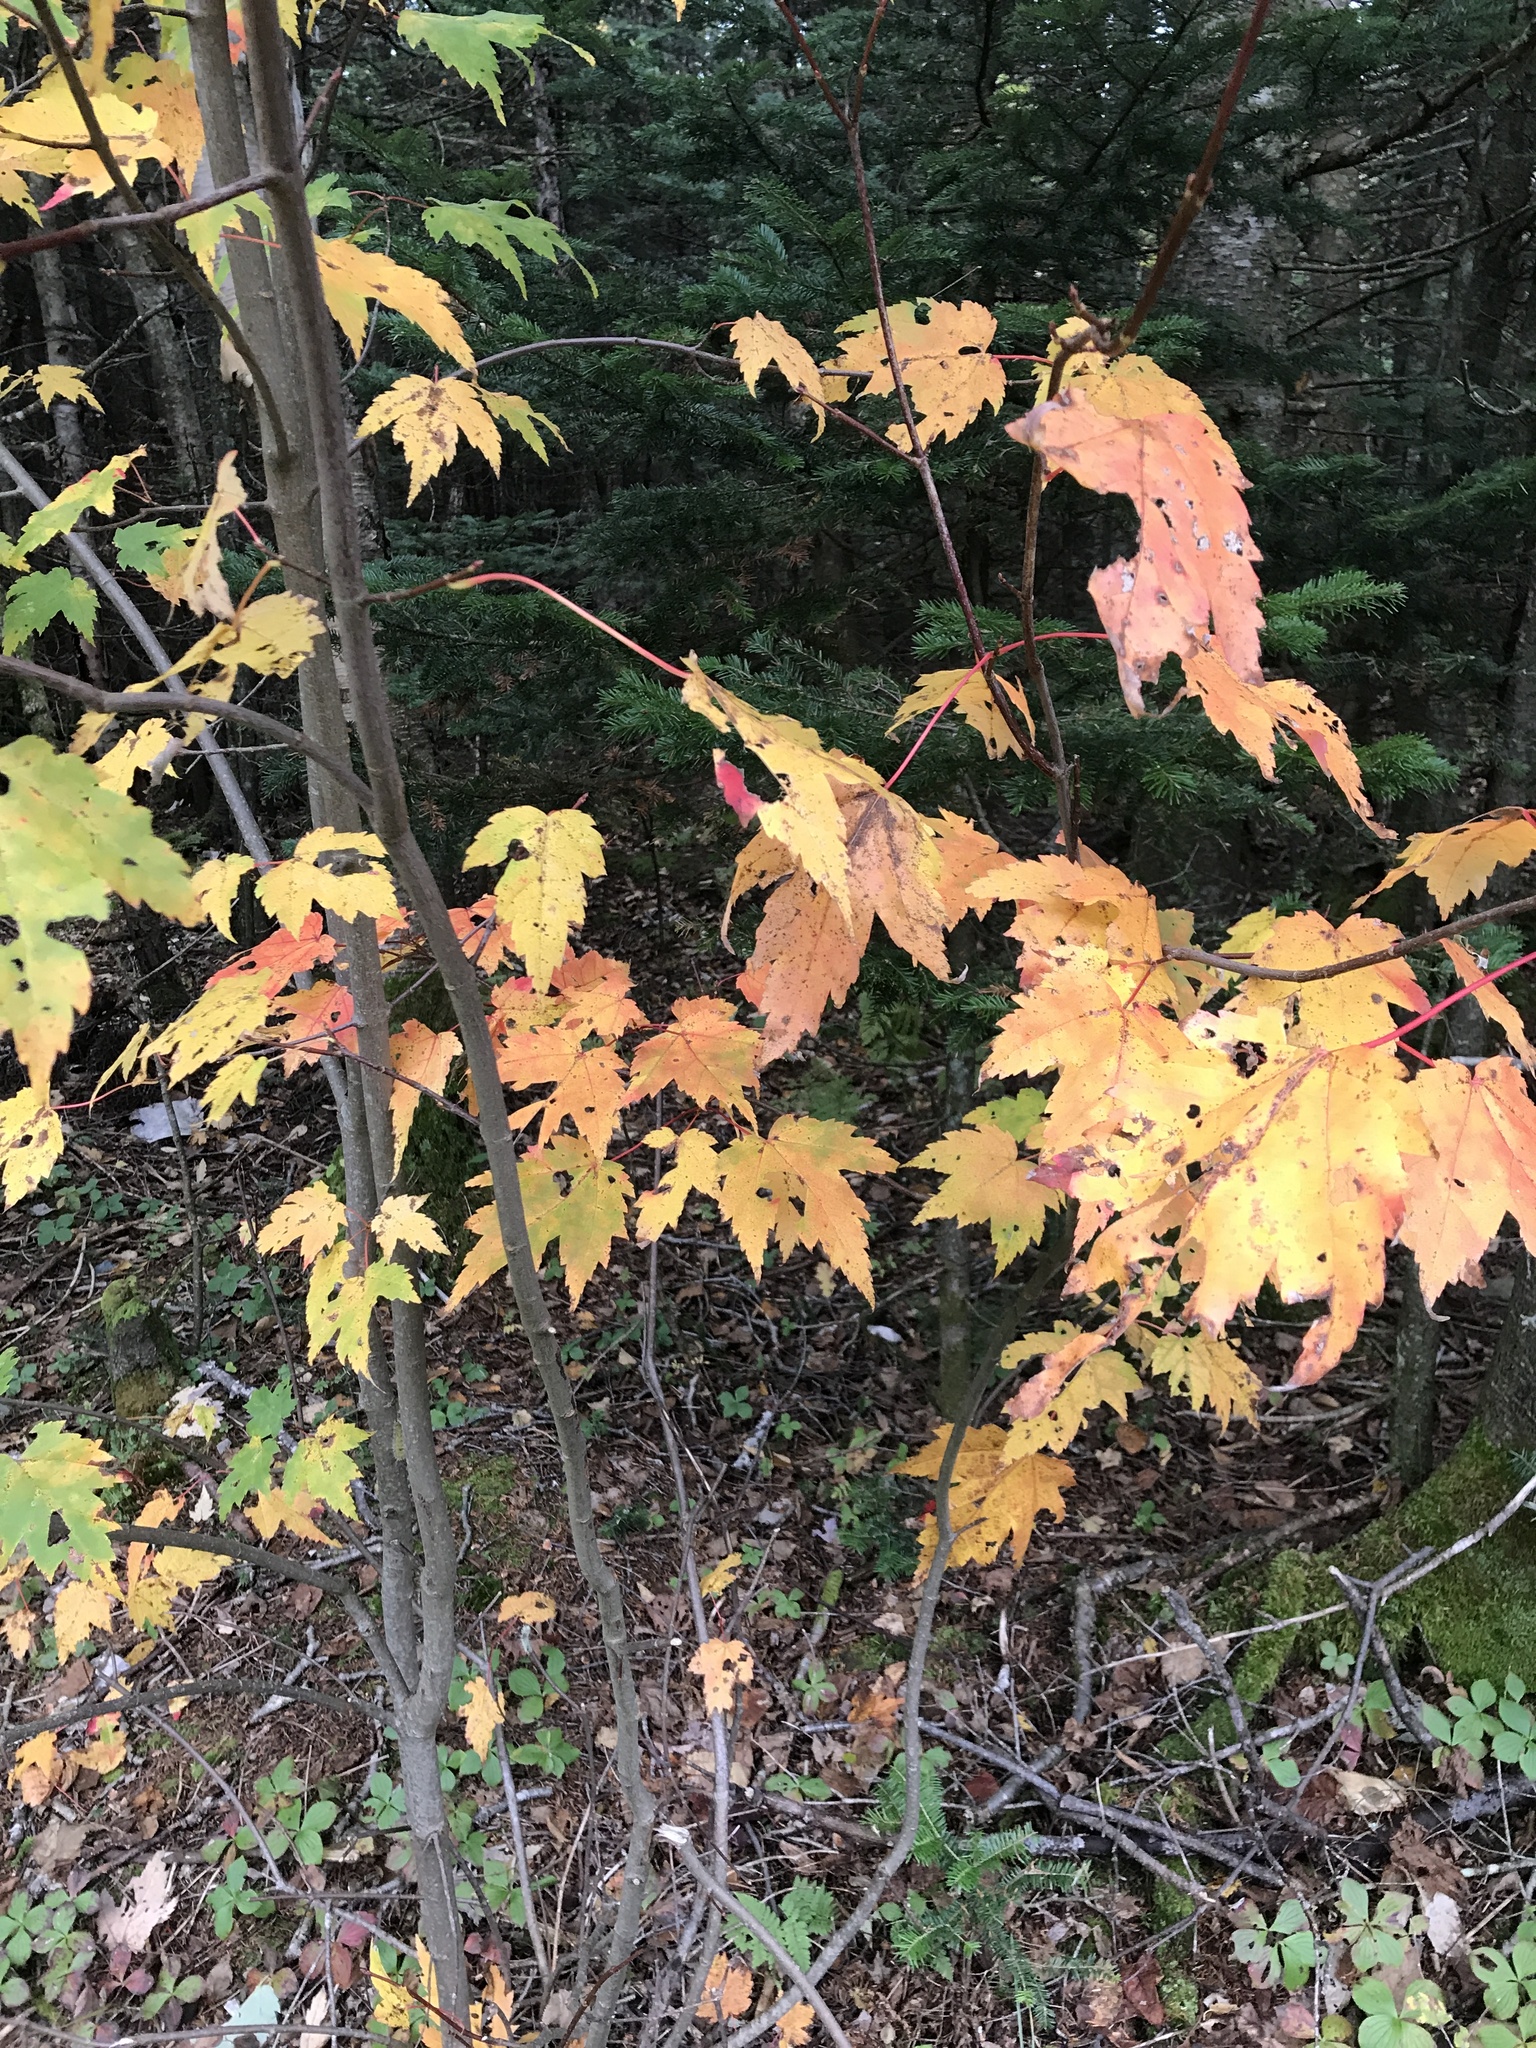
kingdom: Plantae
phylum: Tracheophyta
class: Magnoliopsida
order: Sapindales
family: Sapindaceae
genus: Acer
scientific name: Acer rubrum
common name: Red maple
